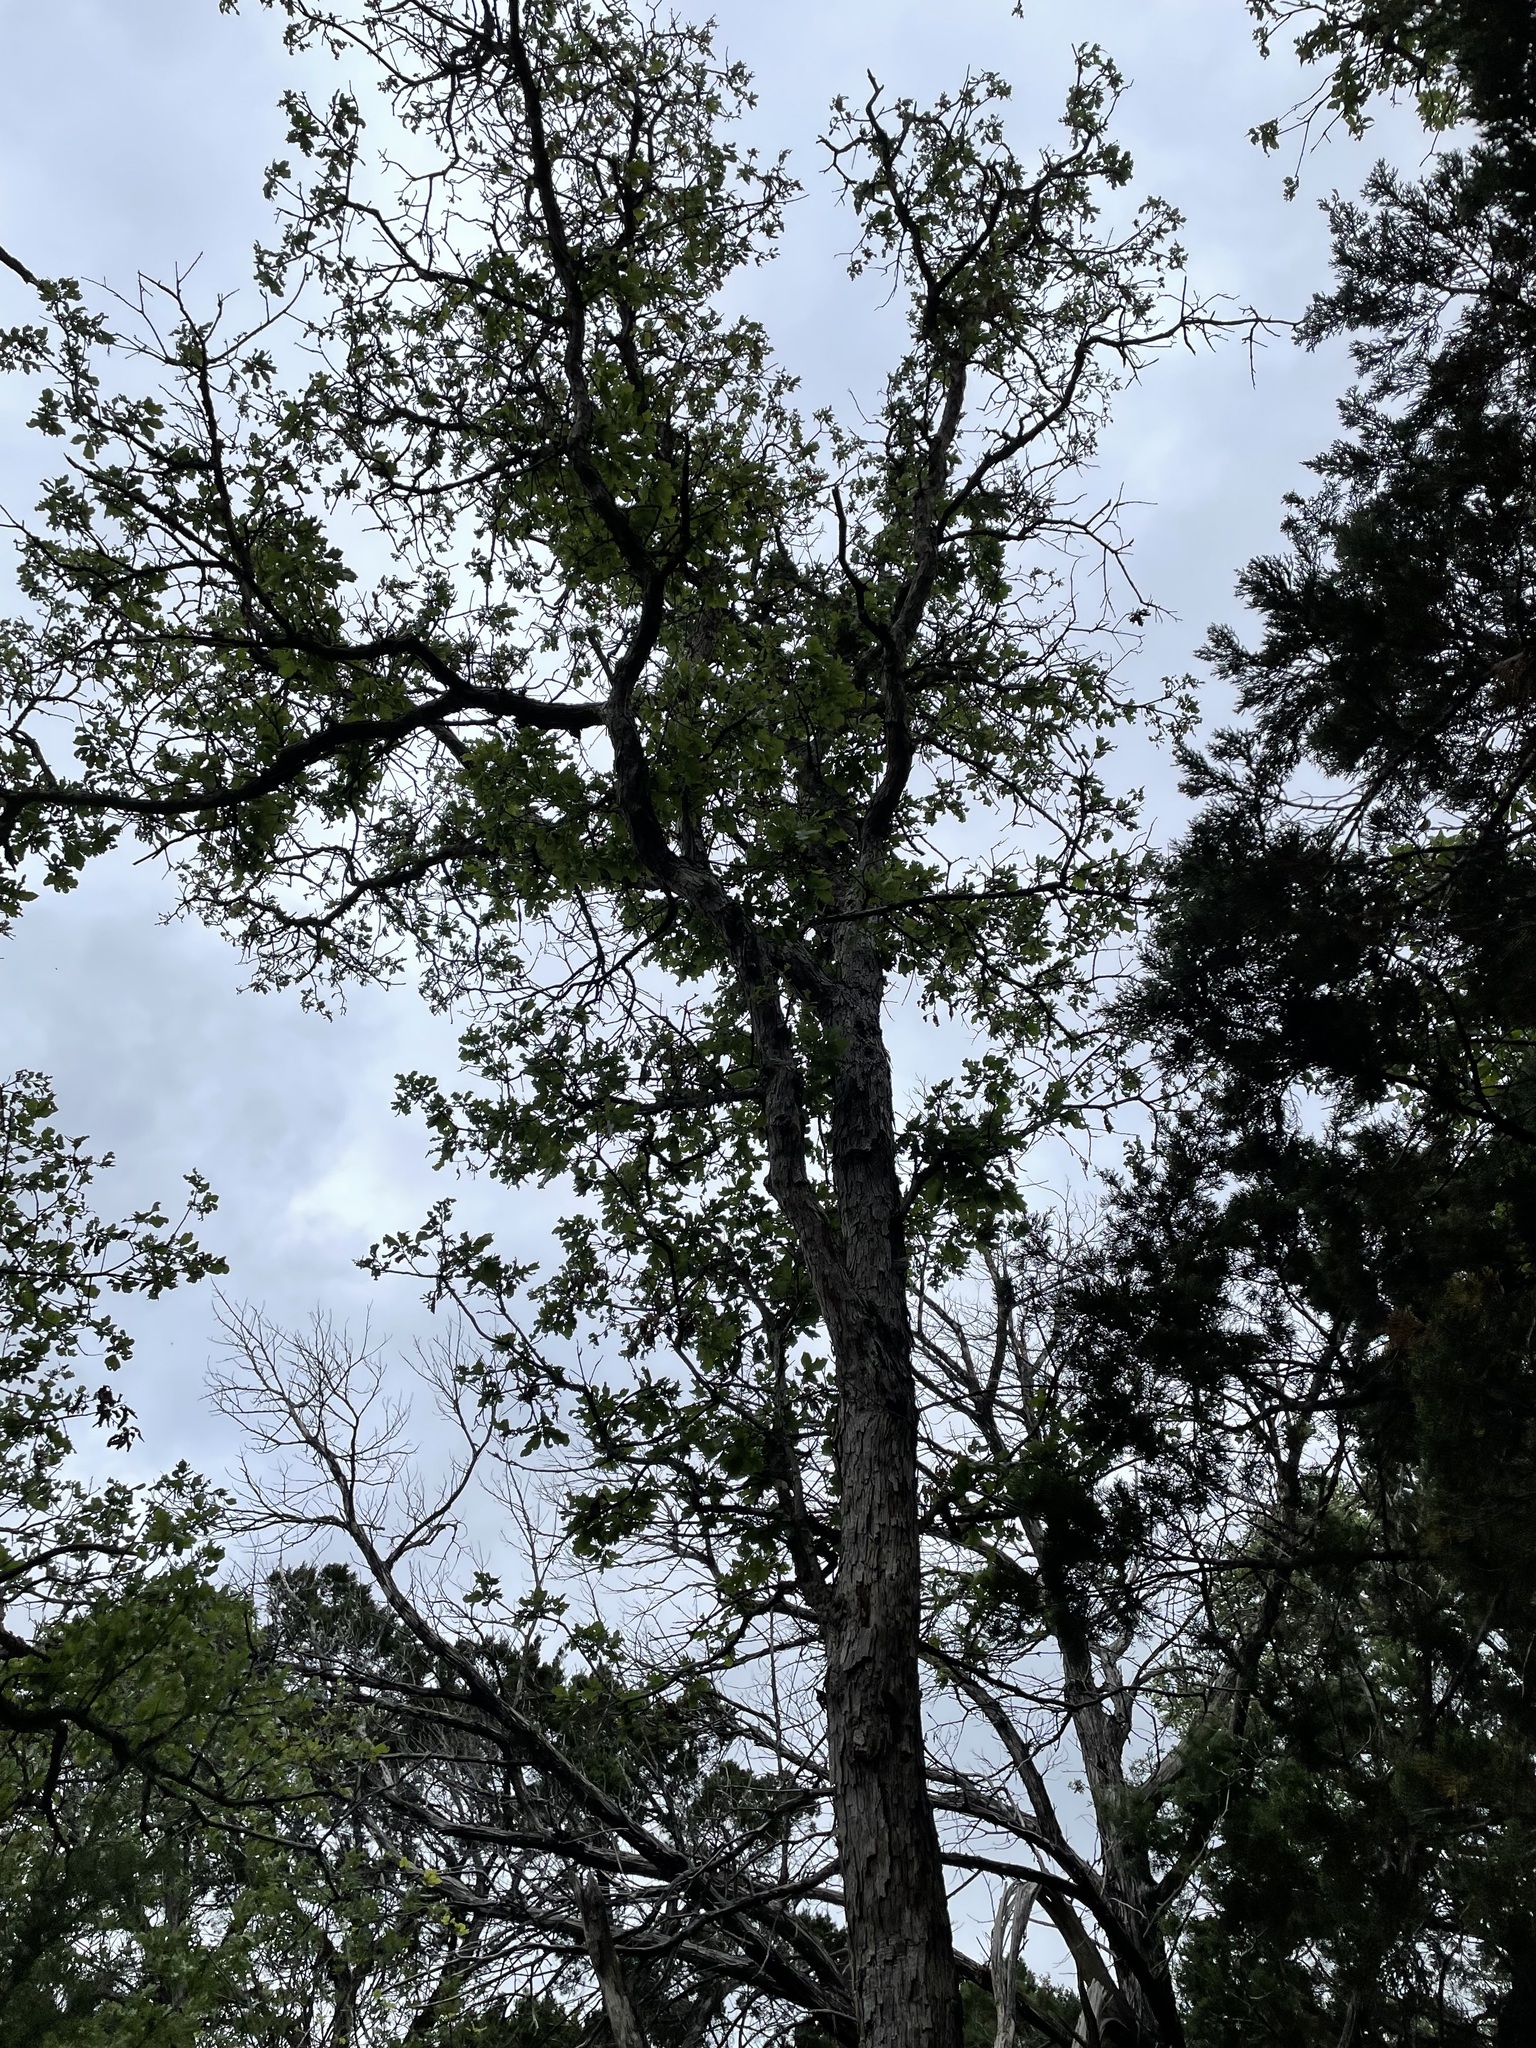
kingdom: Plantae
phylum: Tracheophyta
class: Magnoliopsida
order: Fagales
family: Fagaceae
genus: Quercus
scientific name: Quercus sinuata
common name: Durand oak
